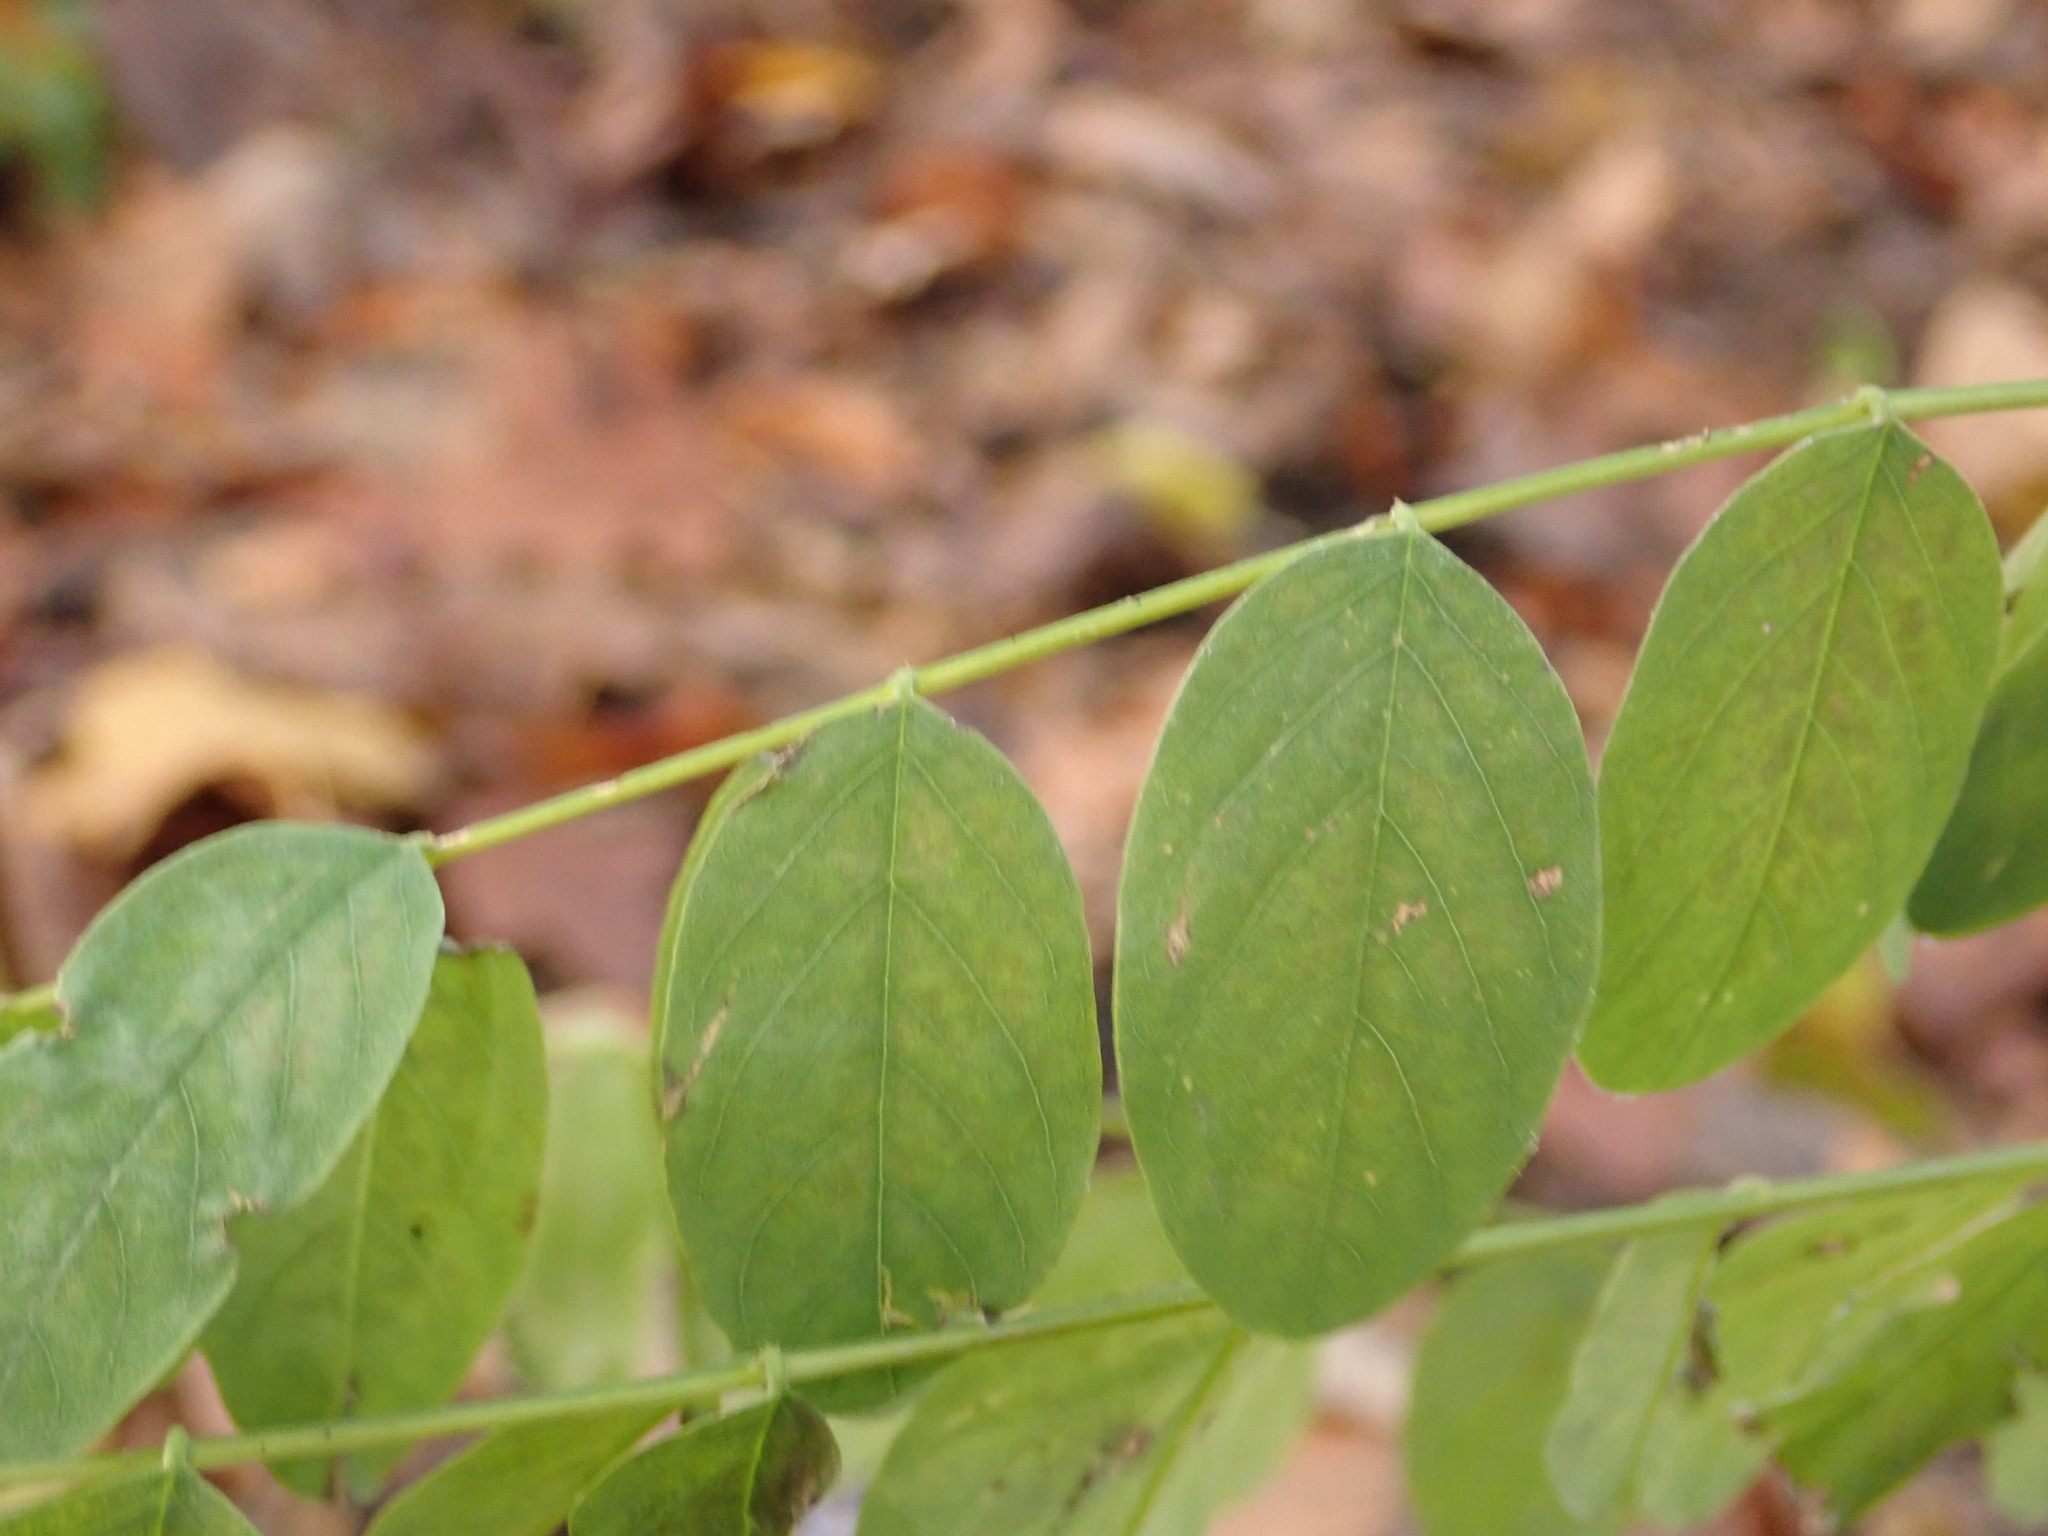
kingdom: Plantae
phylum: Tracheophyta
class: Magnoliopsida
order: Fabales
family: Fabaceae
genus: Robinia
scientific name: Robinia pseudoacacia
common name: Black locust
